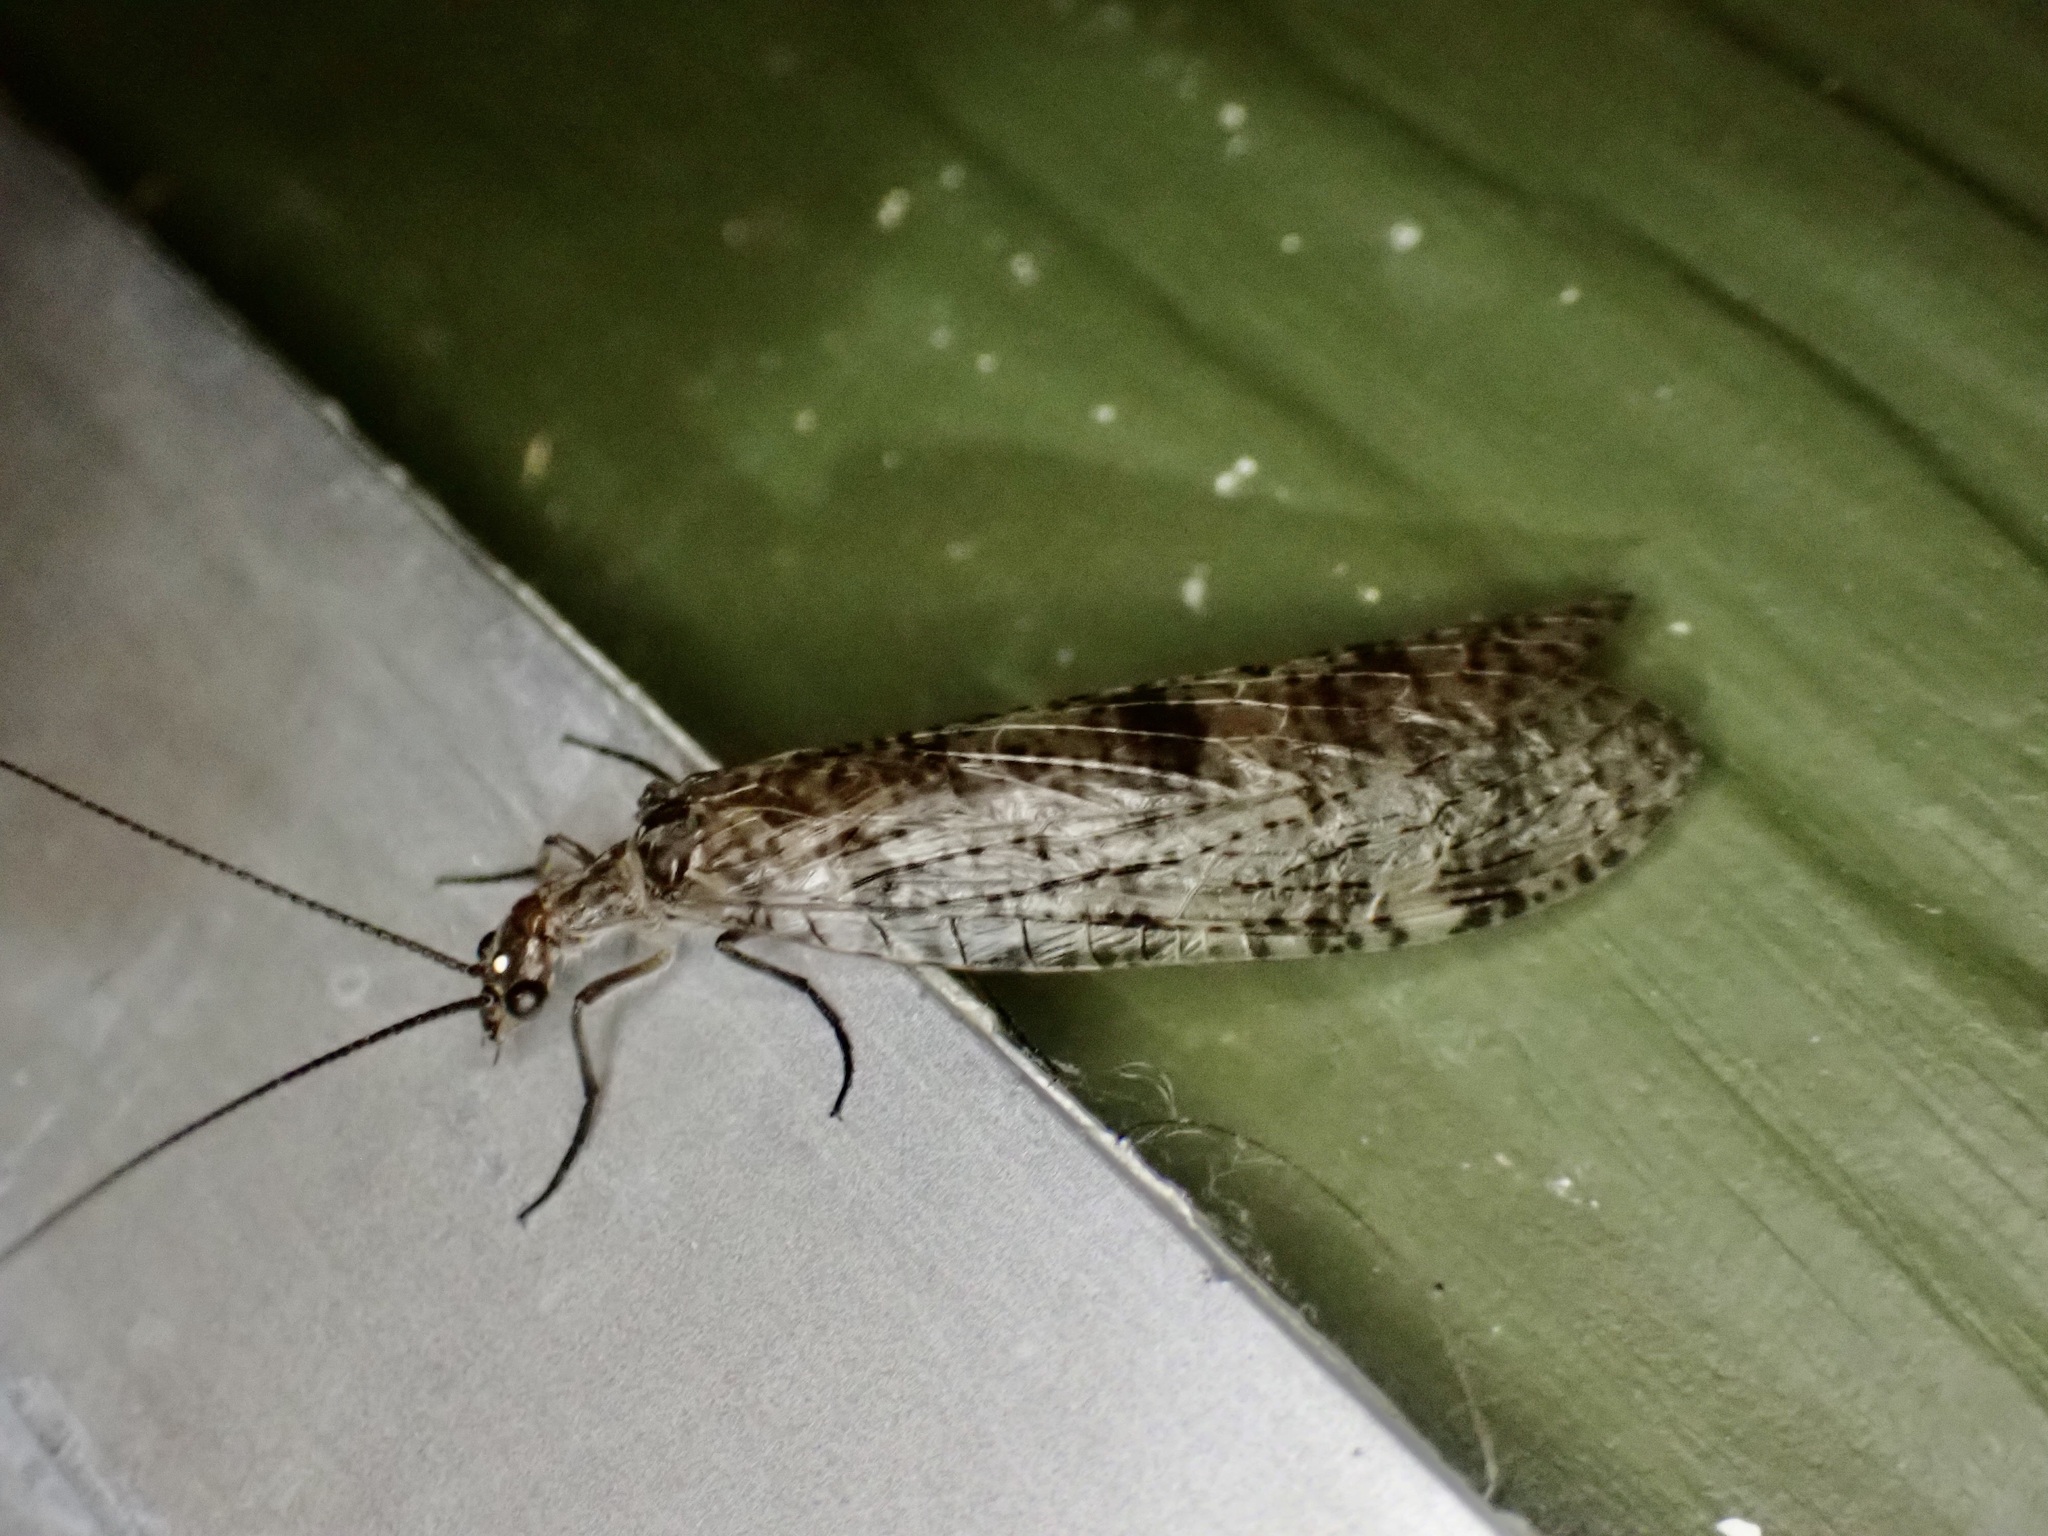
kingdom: Animalia
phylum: Arthropoda
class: Insecta
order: Megaloptera
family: Corydalidae
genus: Archichauliodes
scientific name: Archichauliodes diversus
